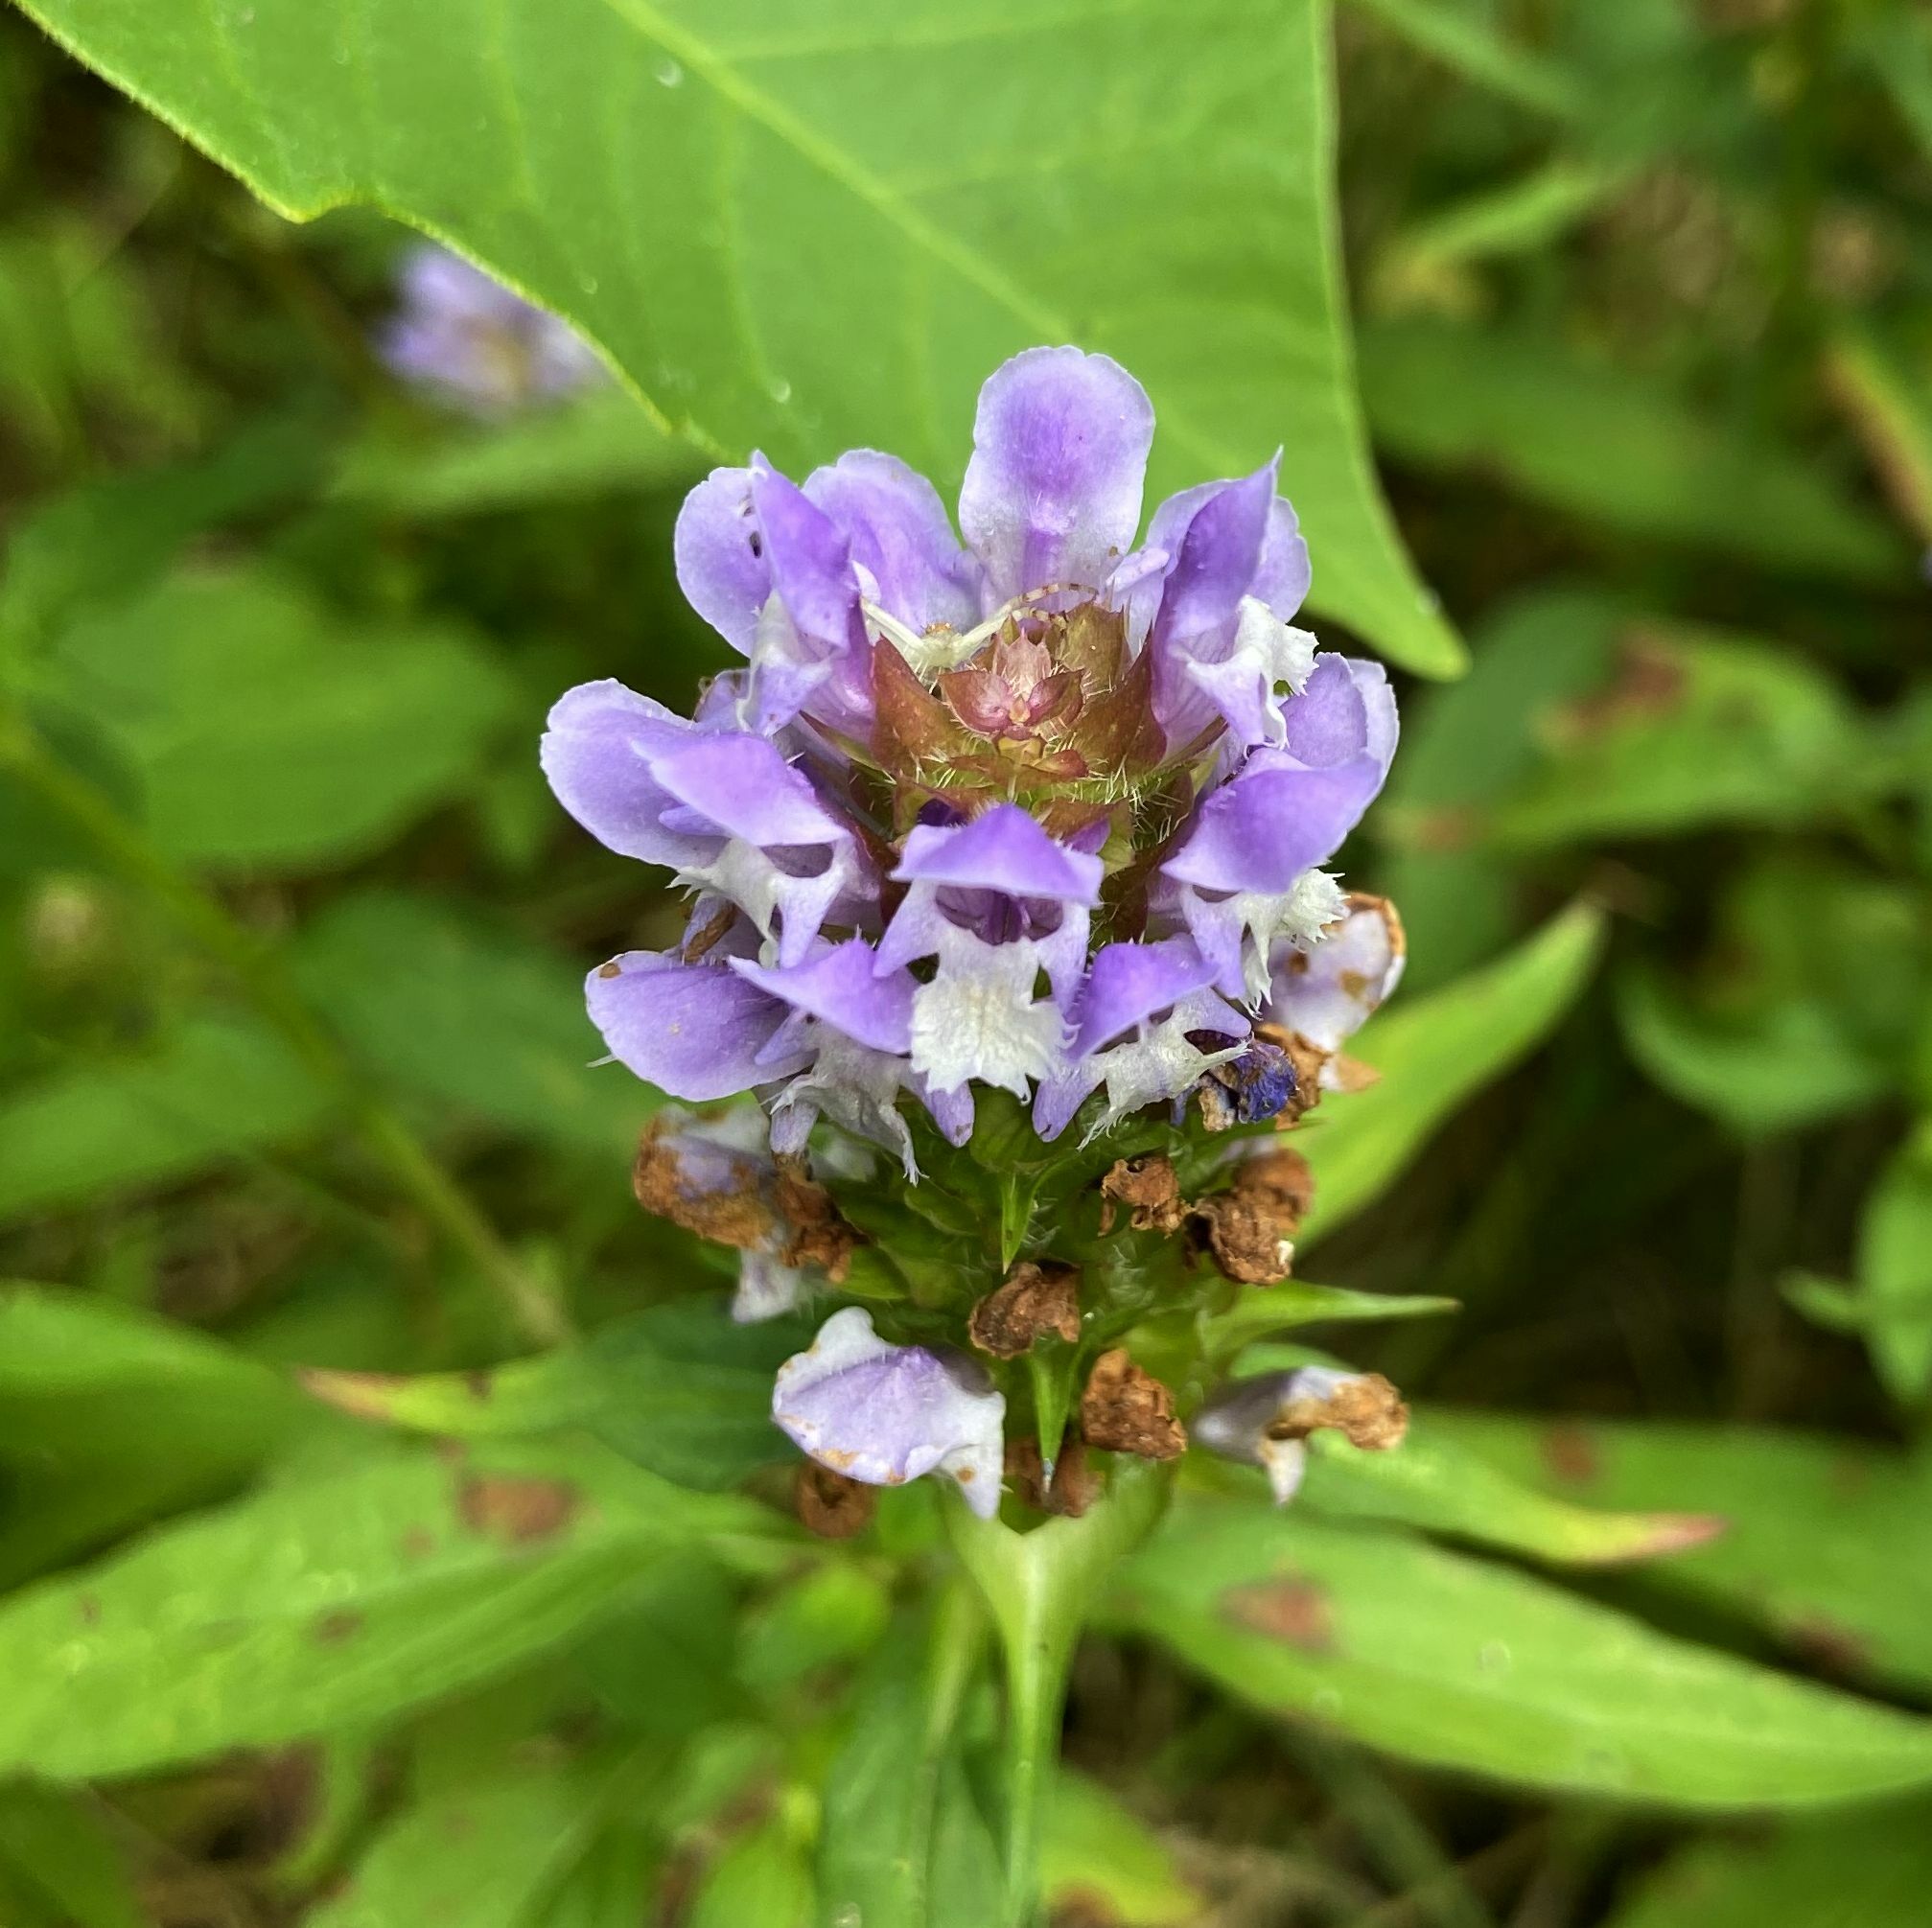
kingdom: Plantae
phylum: Tracheophyta
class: Magnoliopsida
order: Lamiales
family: Lamiaceae
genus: Prunella
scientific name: Prunella vulgaris
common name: Heal-all
